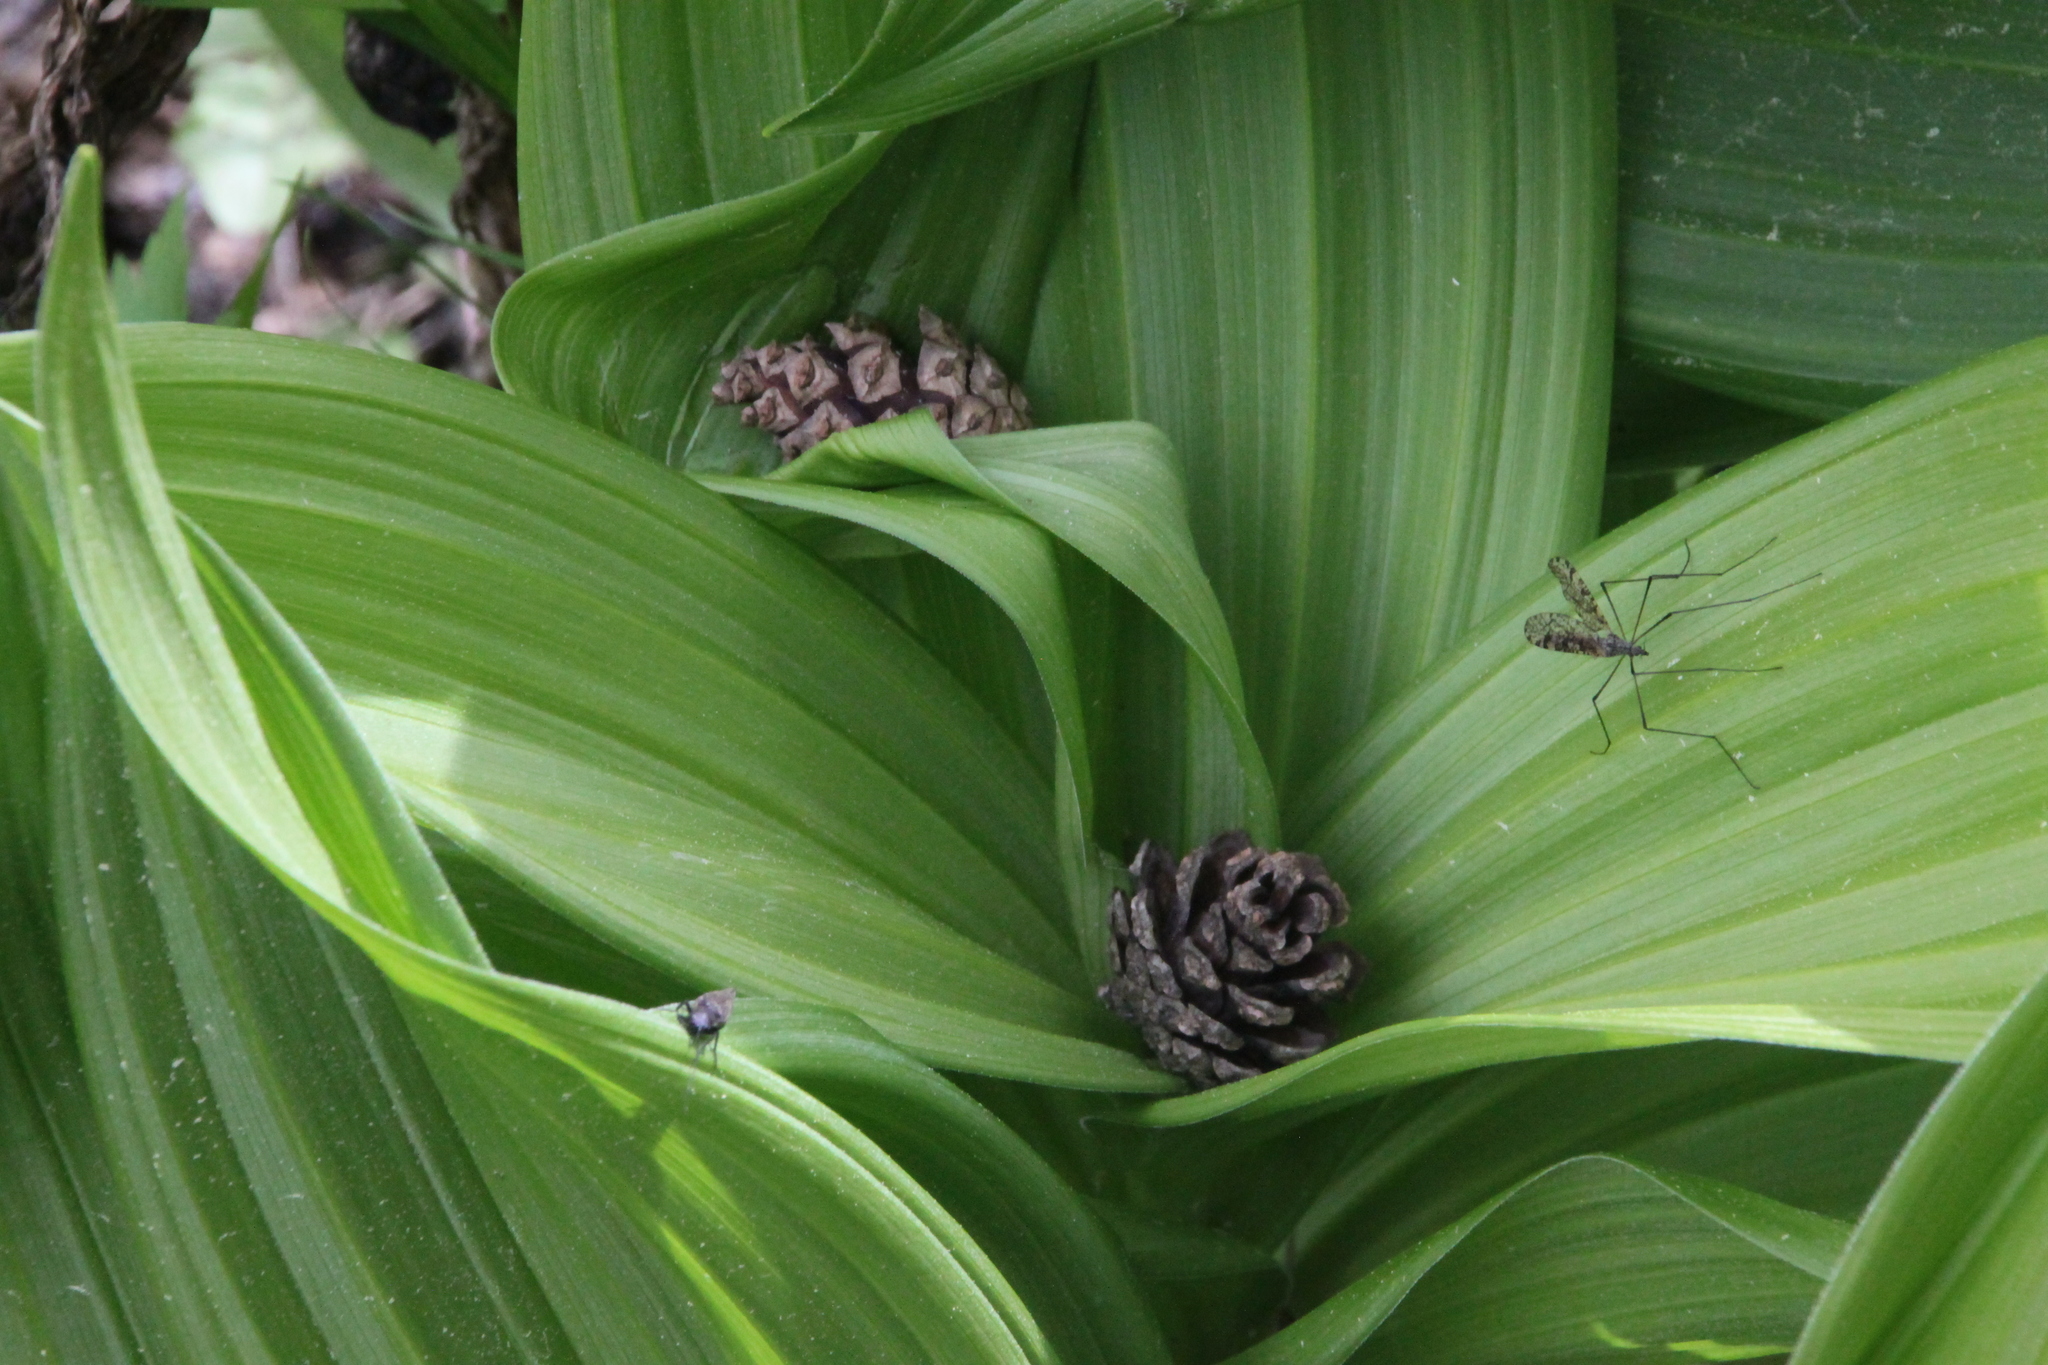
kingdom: Plantae
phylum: Tracheophyta
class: Liliopsida
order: Liliales
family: Melanthiaceae
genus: Veratrum
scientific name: Veratrum lobelianum
